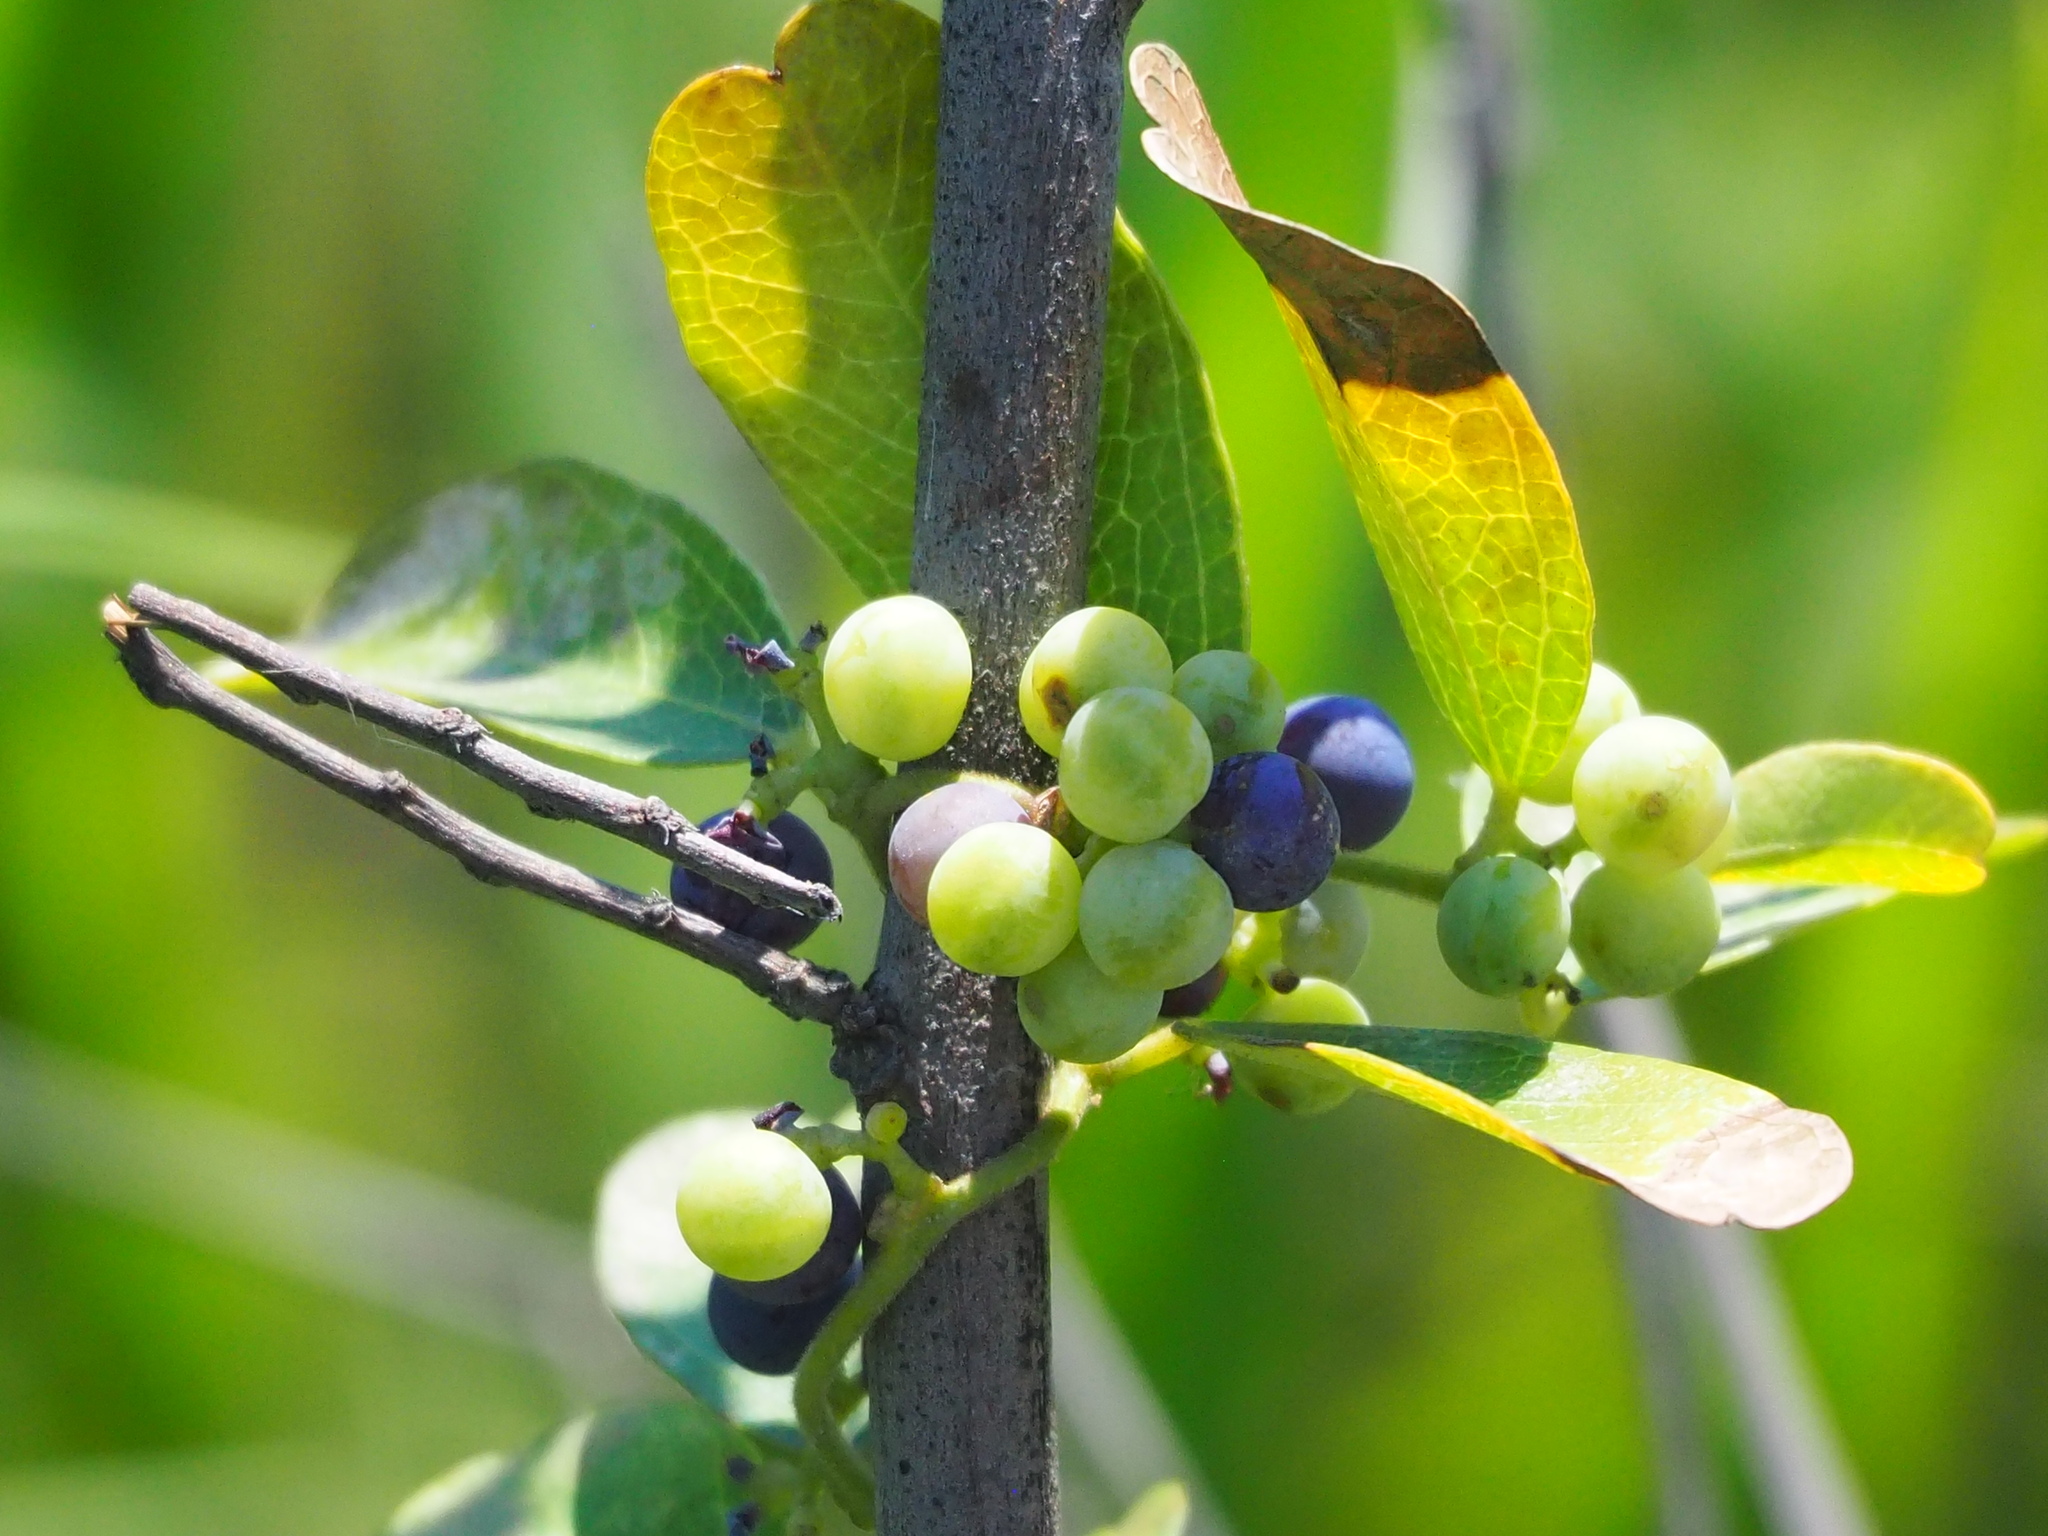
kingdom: Plantae
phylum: Tracheophyta
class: Magnoliopsida
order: Ranunculales
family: Menispermaceae
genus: Cocculus
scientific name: Cocculus orbiculatus
